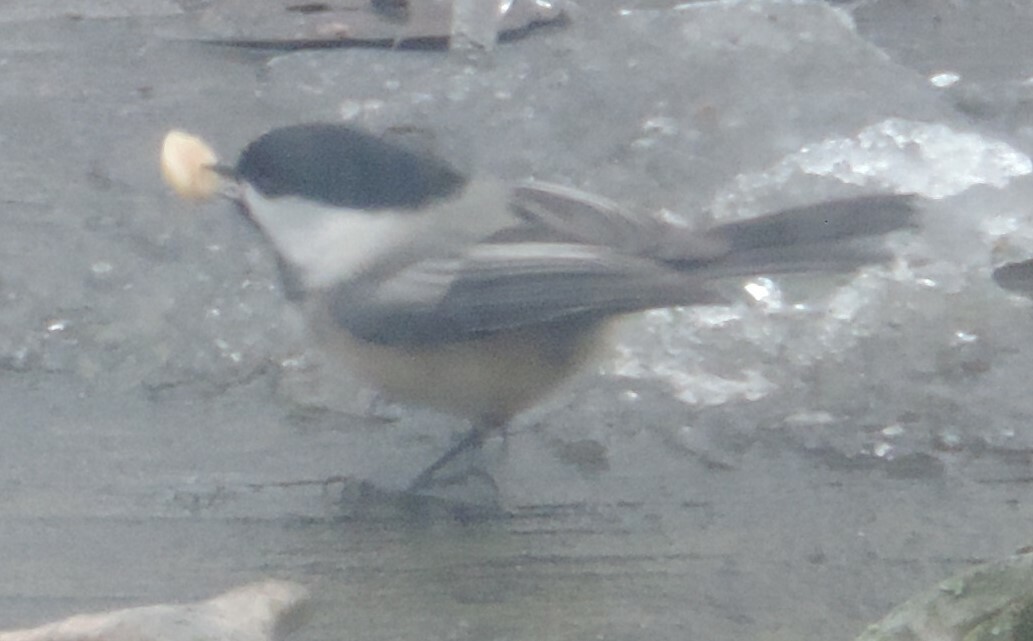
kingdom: Animalia
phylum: Chordata
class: Aves
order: Passeriformes
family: Paridae
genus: Poecile
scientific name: Poecile atricapillus
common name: Black-capped chickadee
